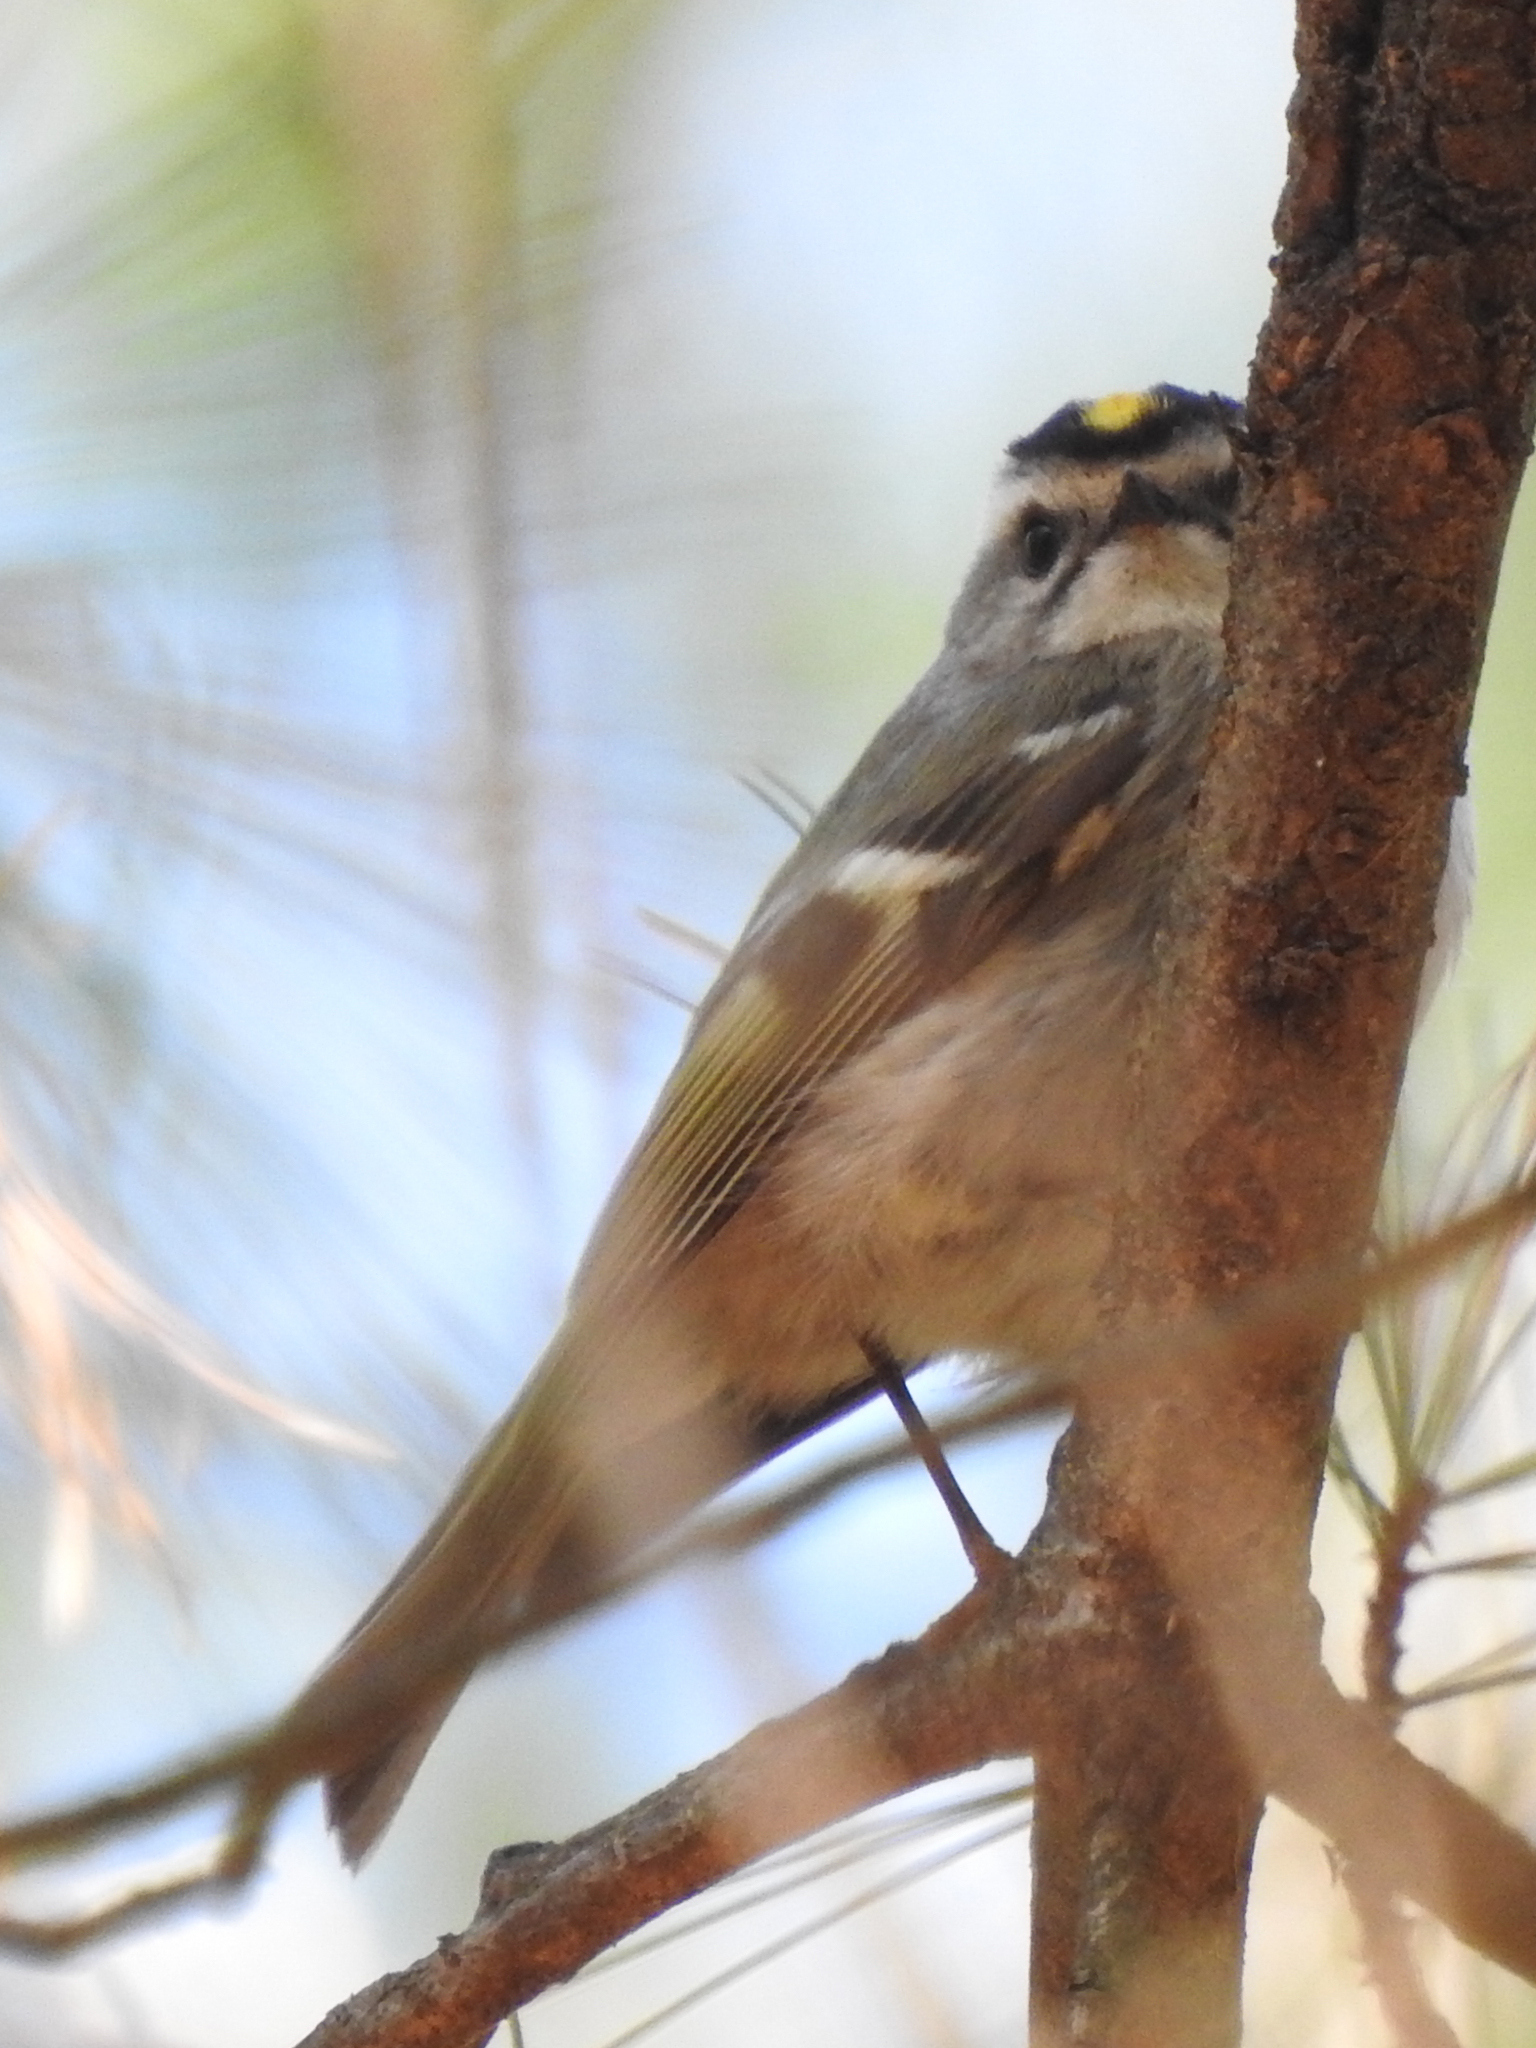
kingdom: Animalia
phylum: Chordata
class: Aves
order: Passeriformes
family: Regulidae
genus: Regulus
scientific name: Regulus satrapa
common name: Golden-crowned kinglet
